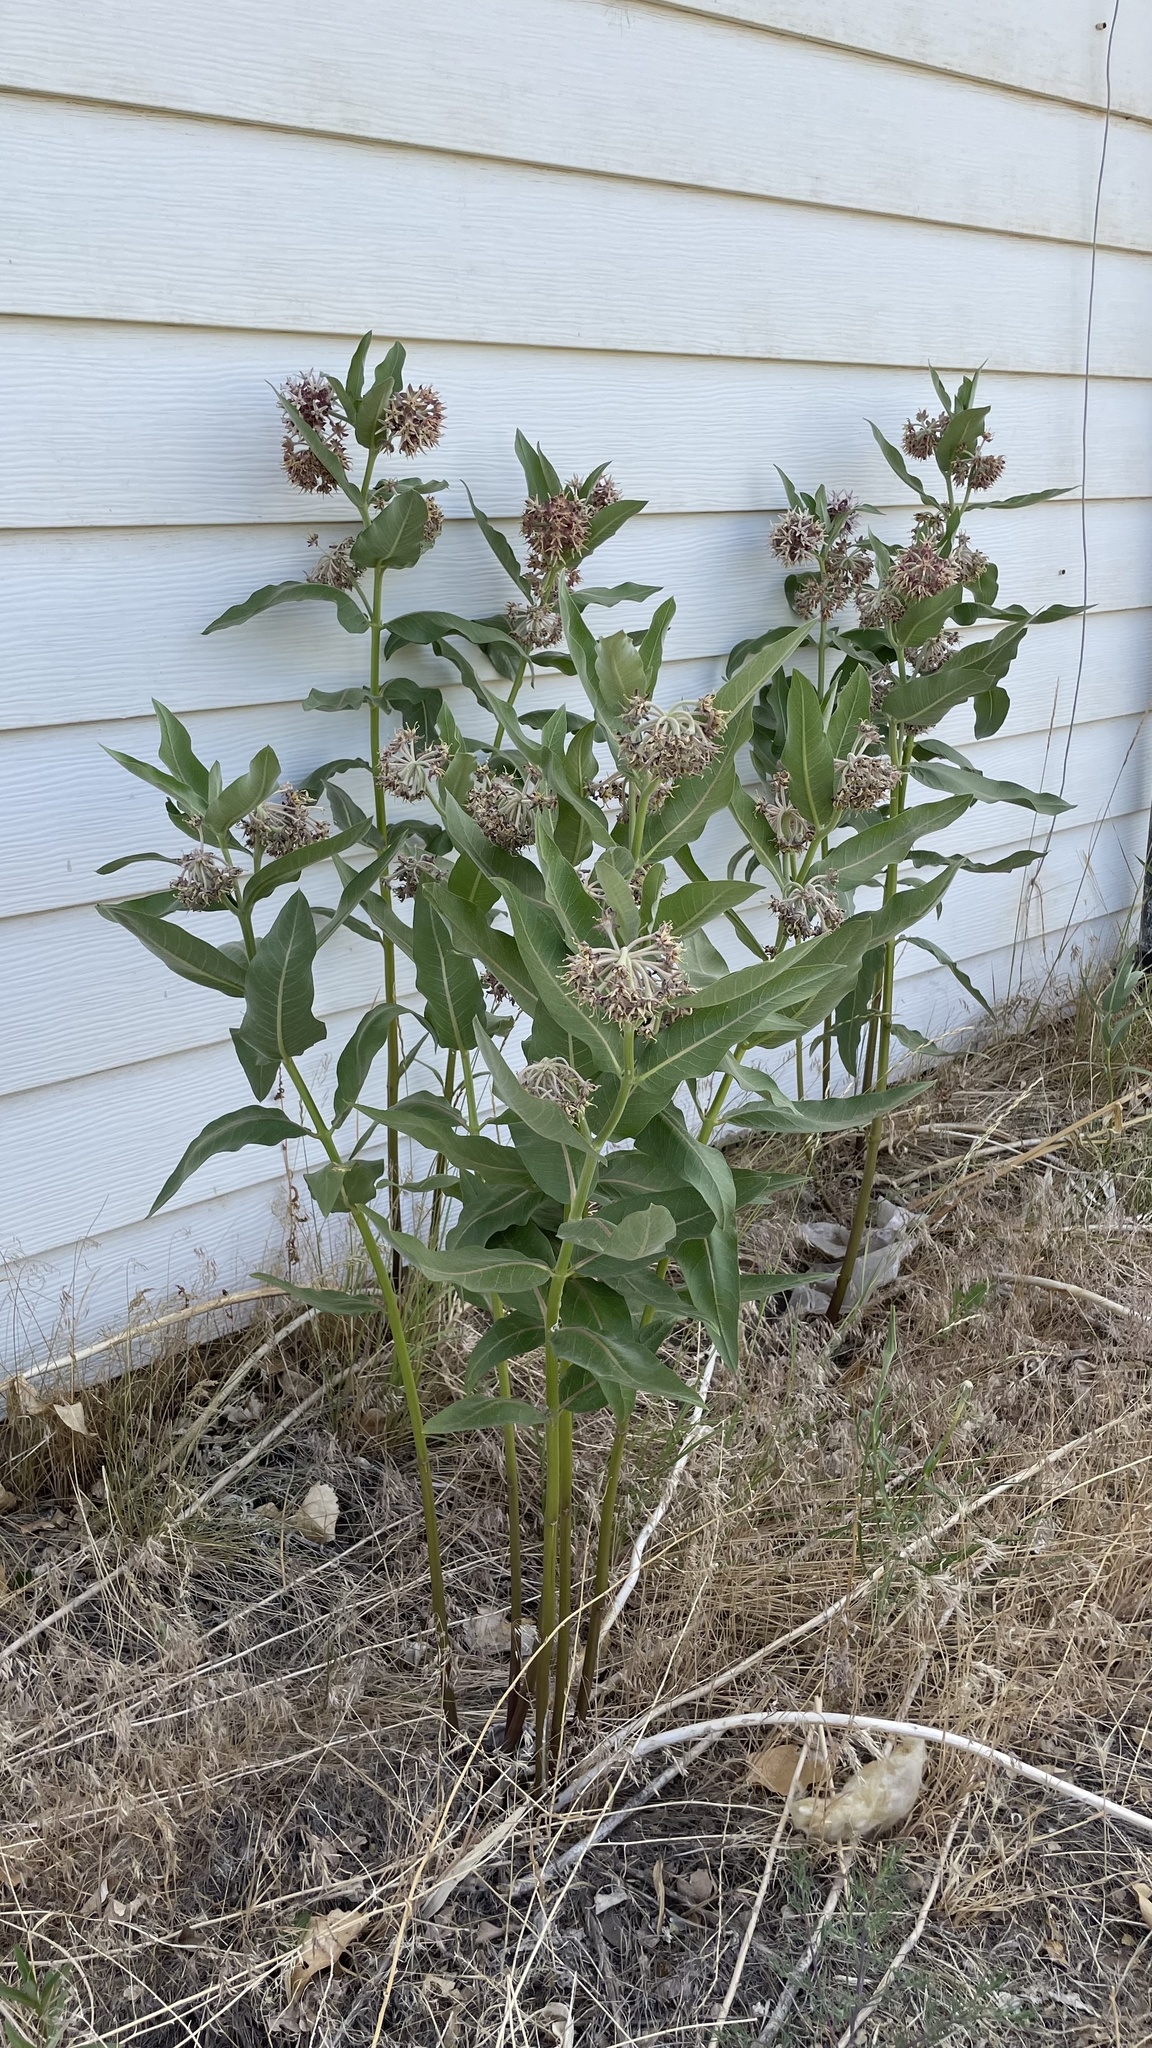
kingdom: Plantae
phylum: Tracheophyta
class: Magnoliopsida
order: Gentianales
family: Apocynaceae
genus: Asclepias
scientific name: Asclepias speciosa
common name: Showy milkweed
